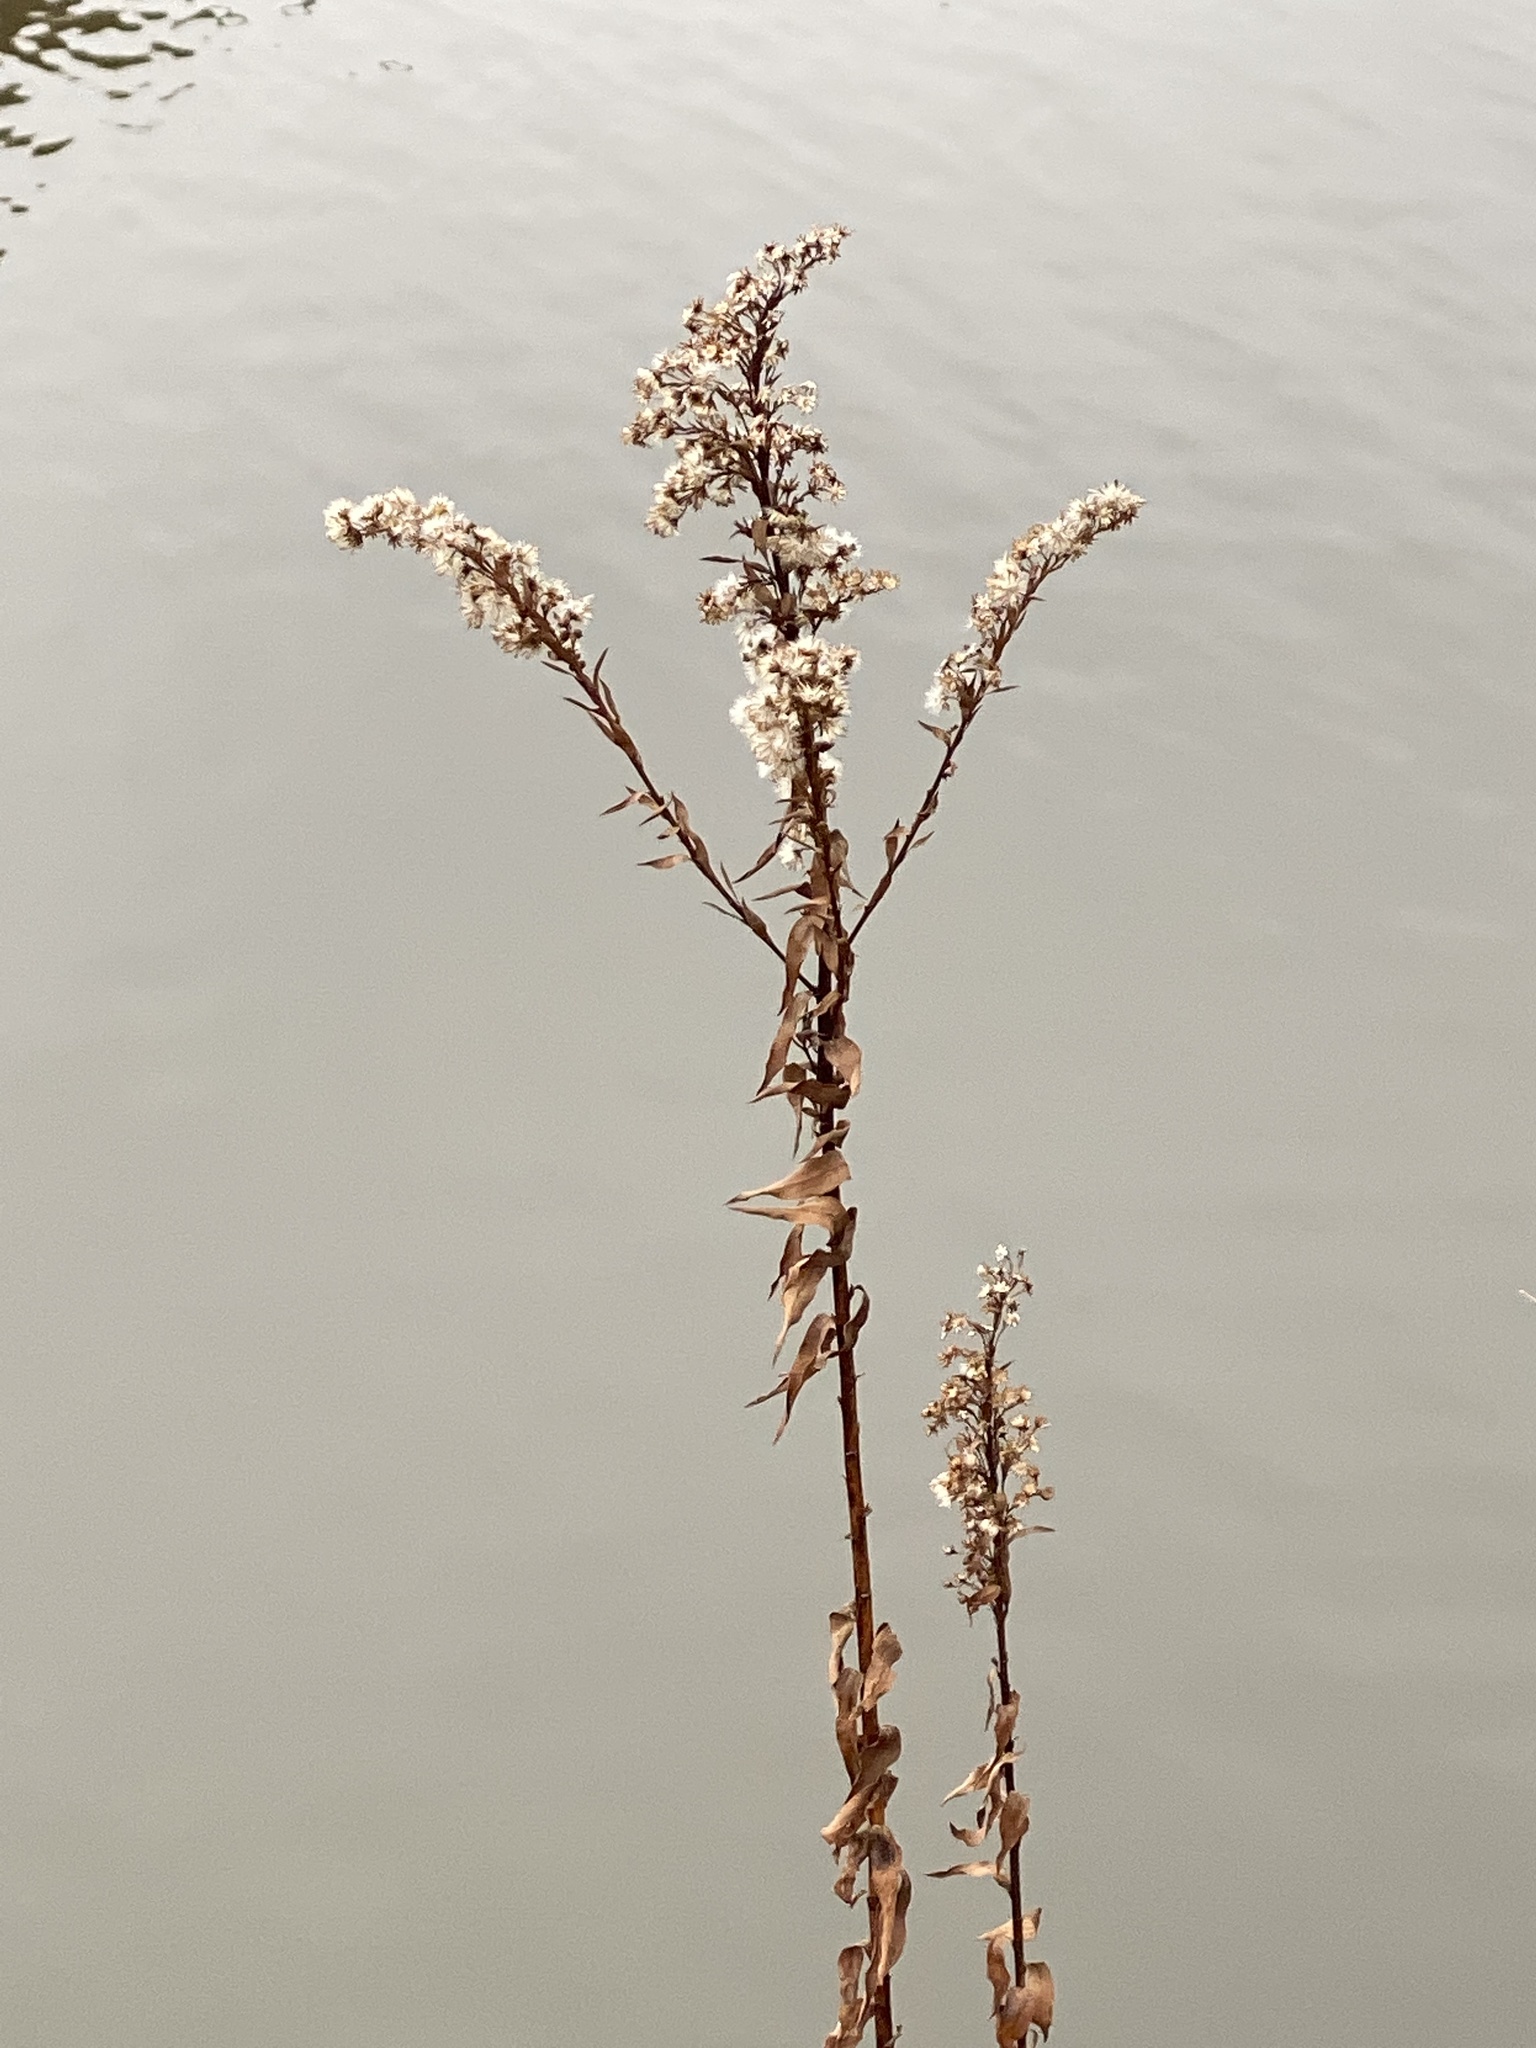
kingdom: Plantae
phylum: Tracheophyta
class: Magnoliopsida
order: Asterales
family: Asteraceae
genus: Solidago
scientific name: Solidago sempervirens
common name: Salt-marsh goldenrod
